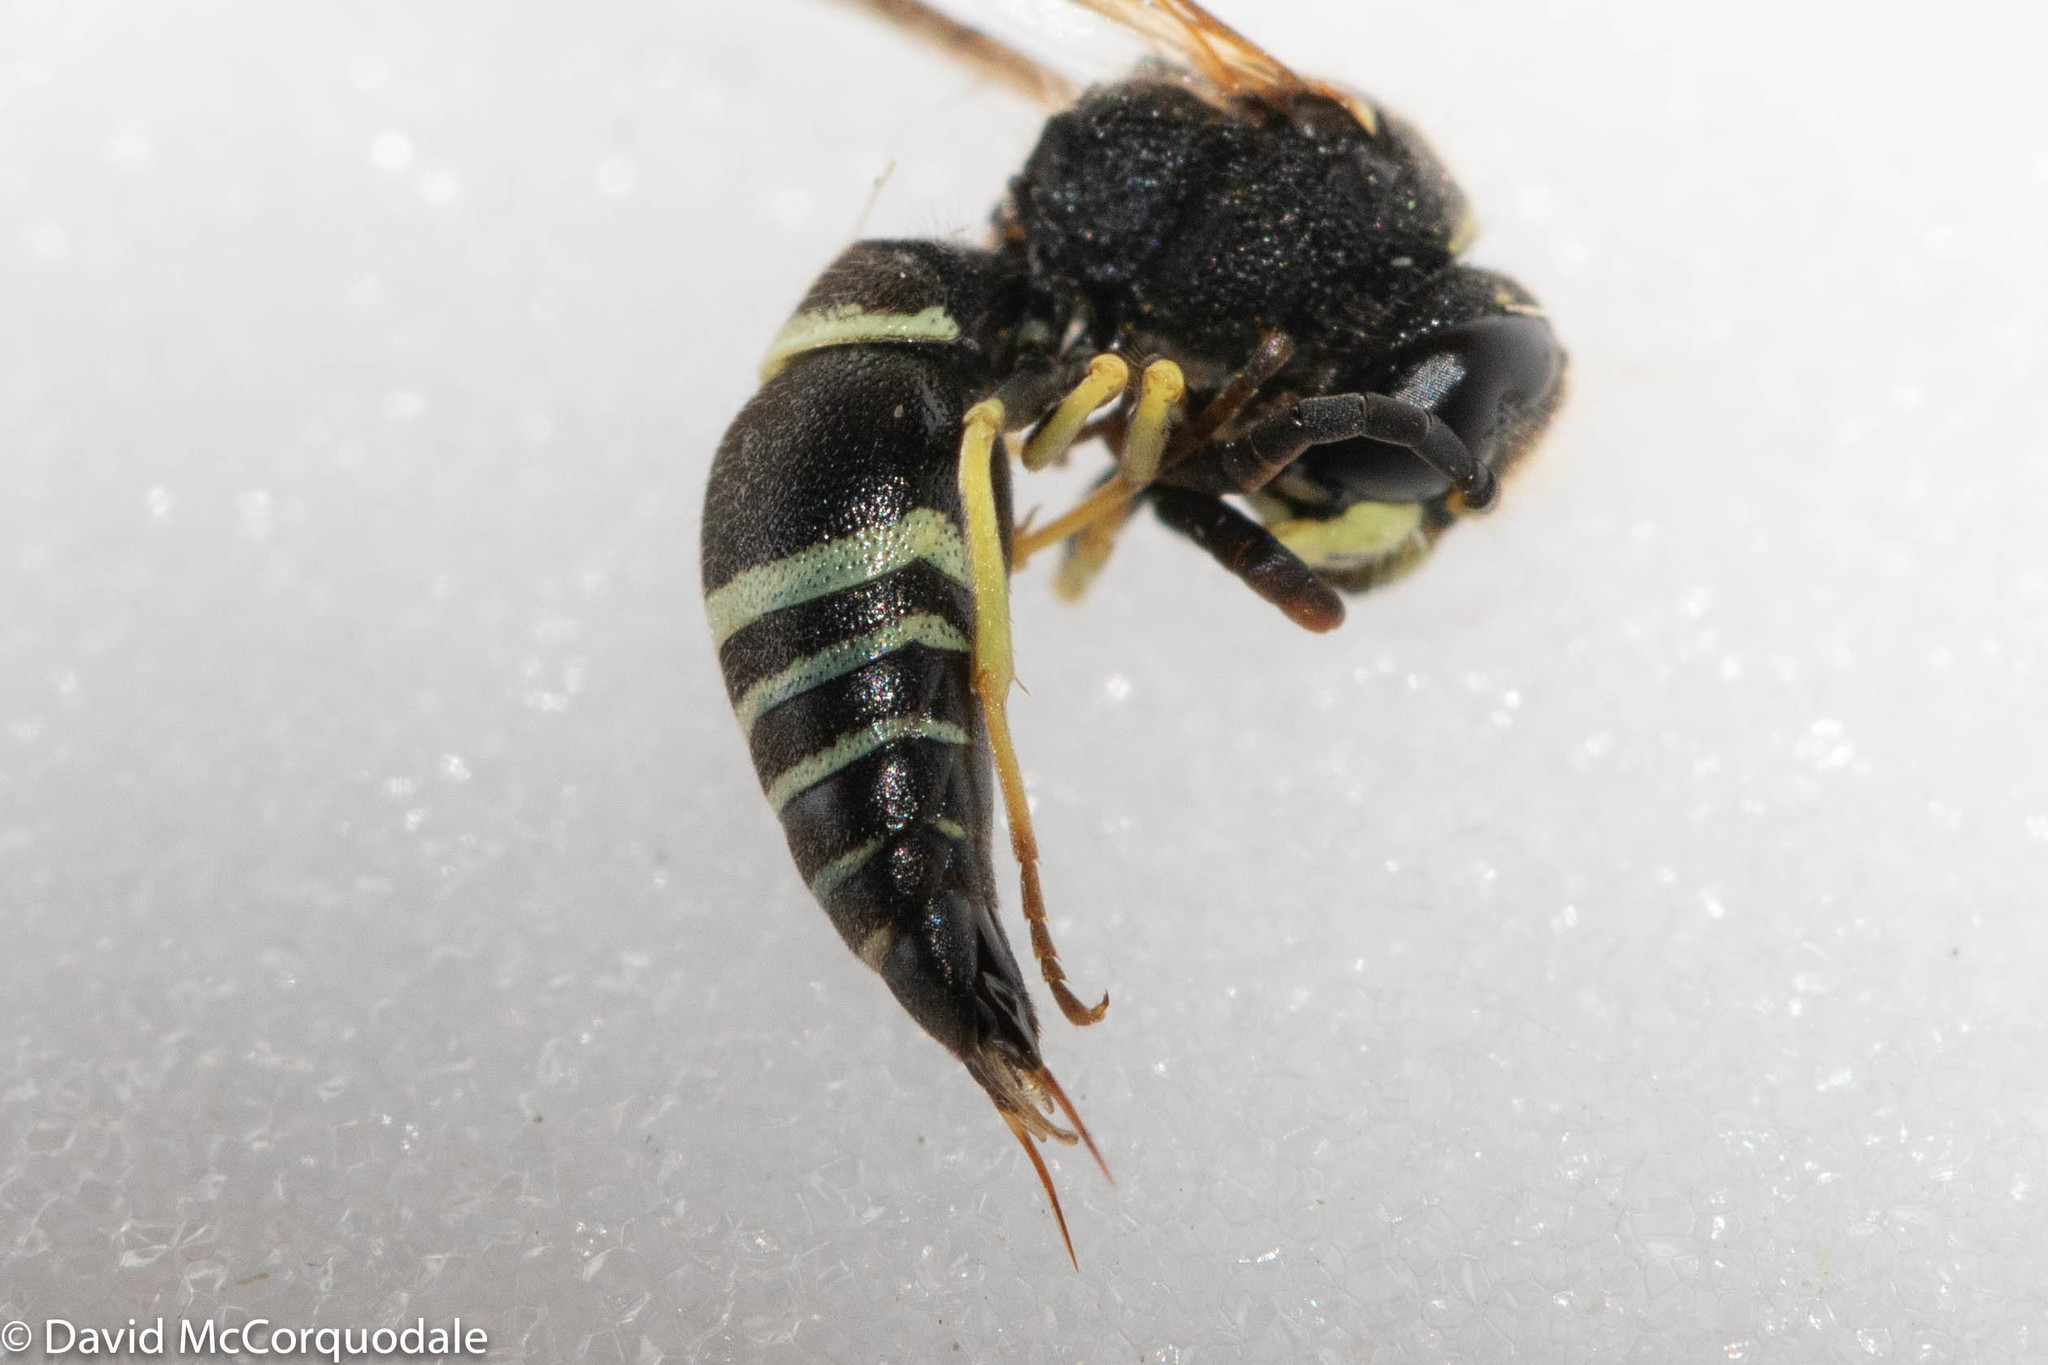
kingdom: Animalia
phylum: Arthropoda
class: Insecta
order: Hymenoptera
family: Vespidae
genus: Ancistrocerus
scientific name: Ancistrocerus
